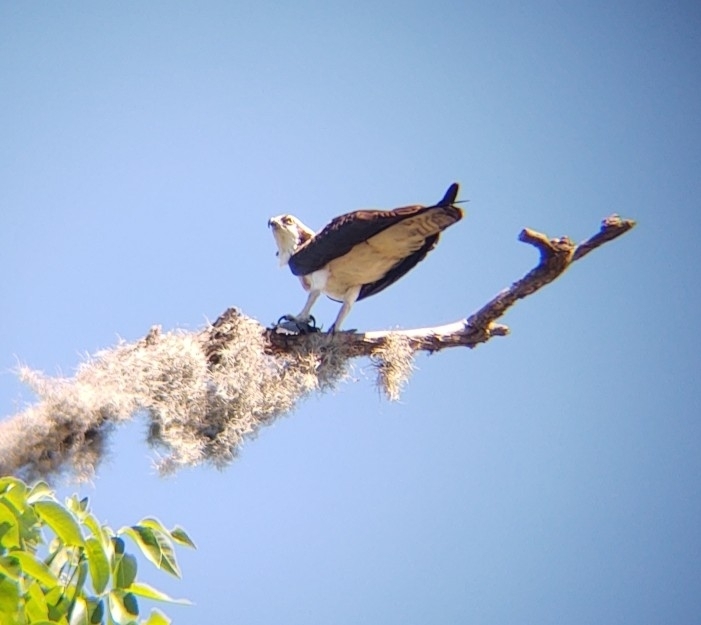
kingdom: Animalia
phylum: Chordata
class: Aves
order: Accipitriformes
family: Pandionidae
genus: Pandion
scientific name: Pandion haliaetus
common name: Osprey
